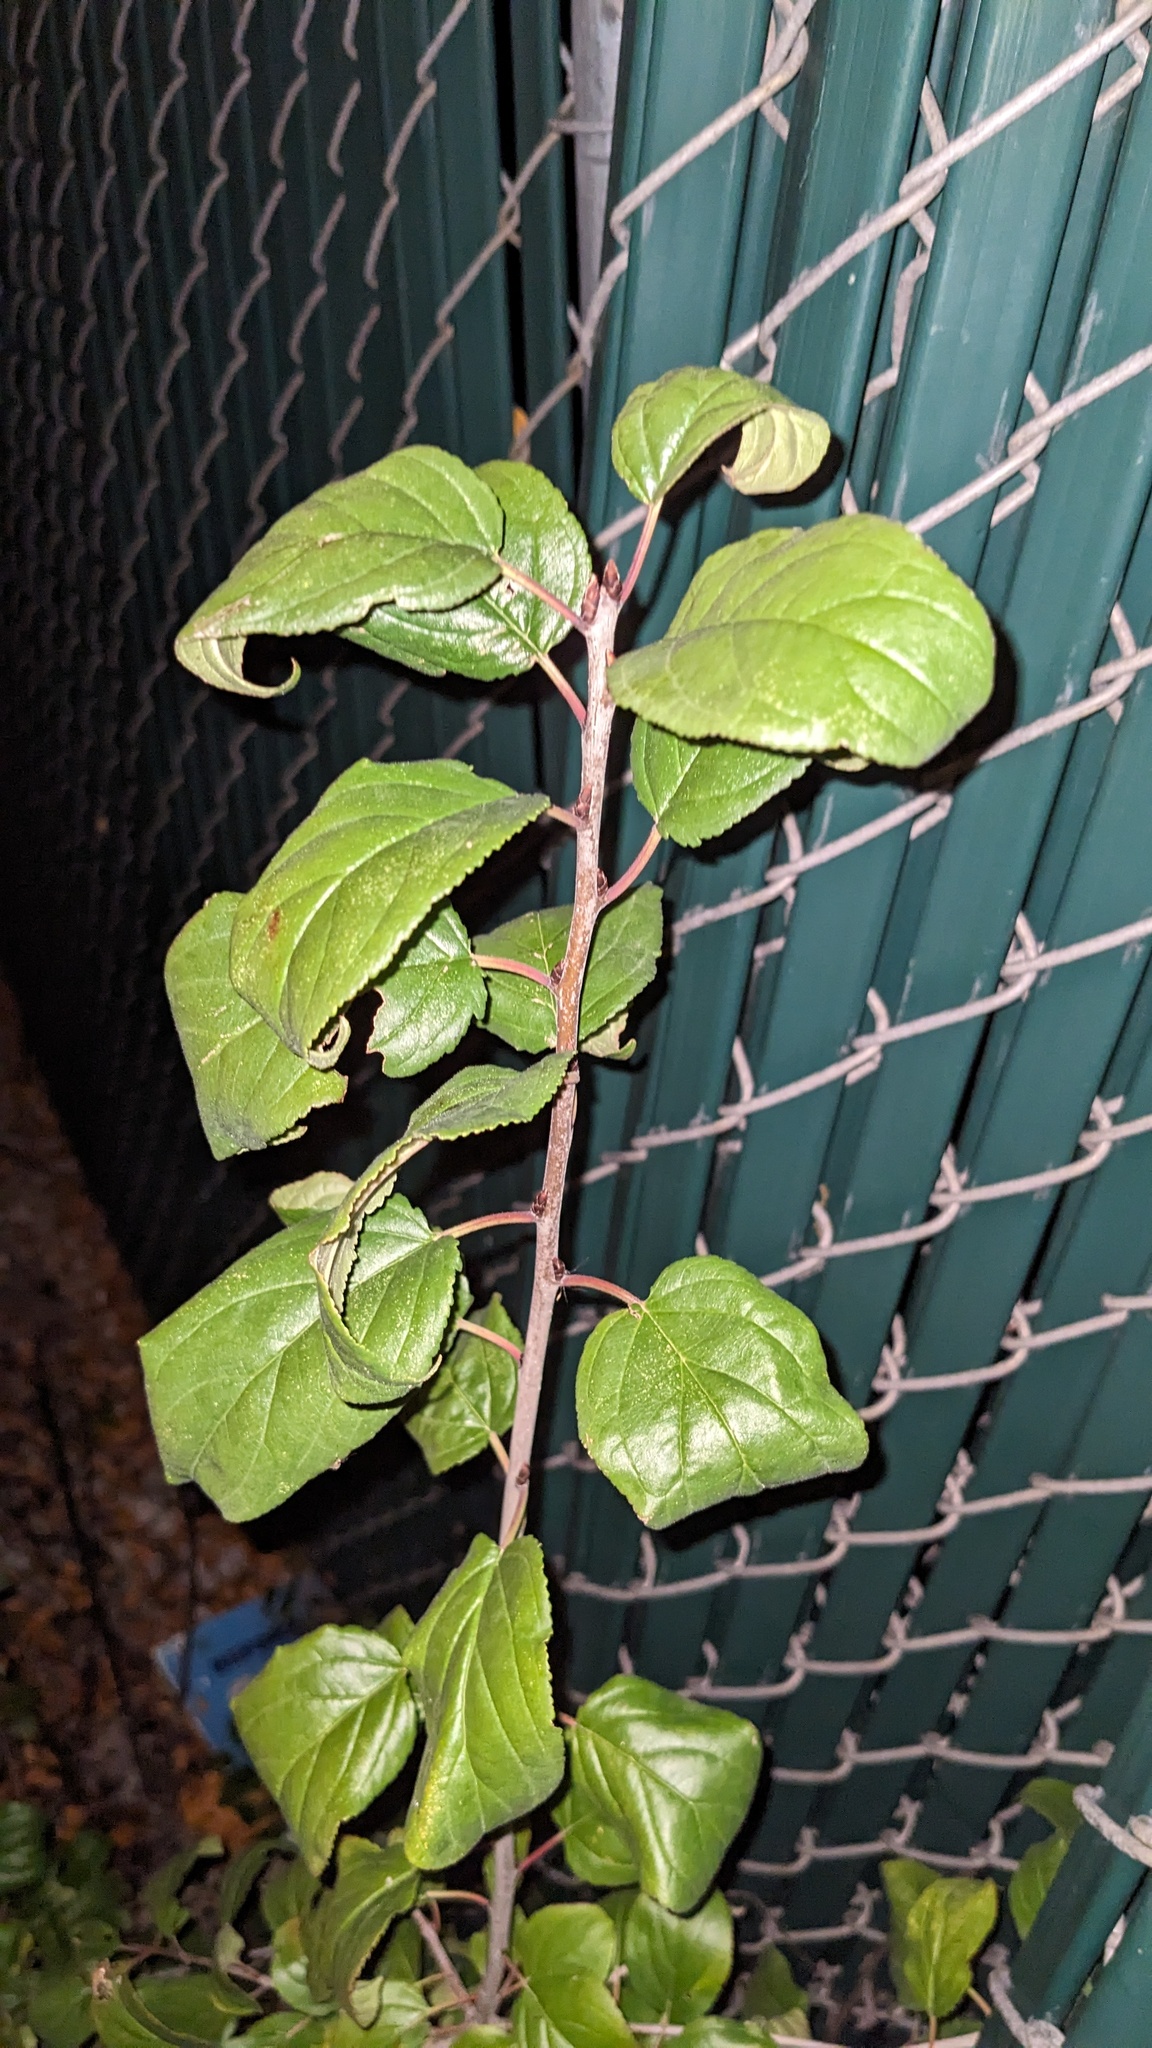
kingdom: Plantae
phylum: Tracheophyta
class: Magnoliopsida
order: Rosales
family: Rhamnaceae
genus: Rhamnus
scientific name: Rhamnus cathartica
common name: Common buckthorn
